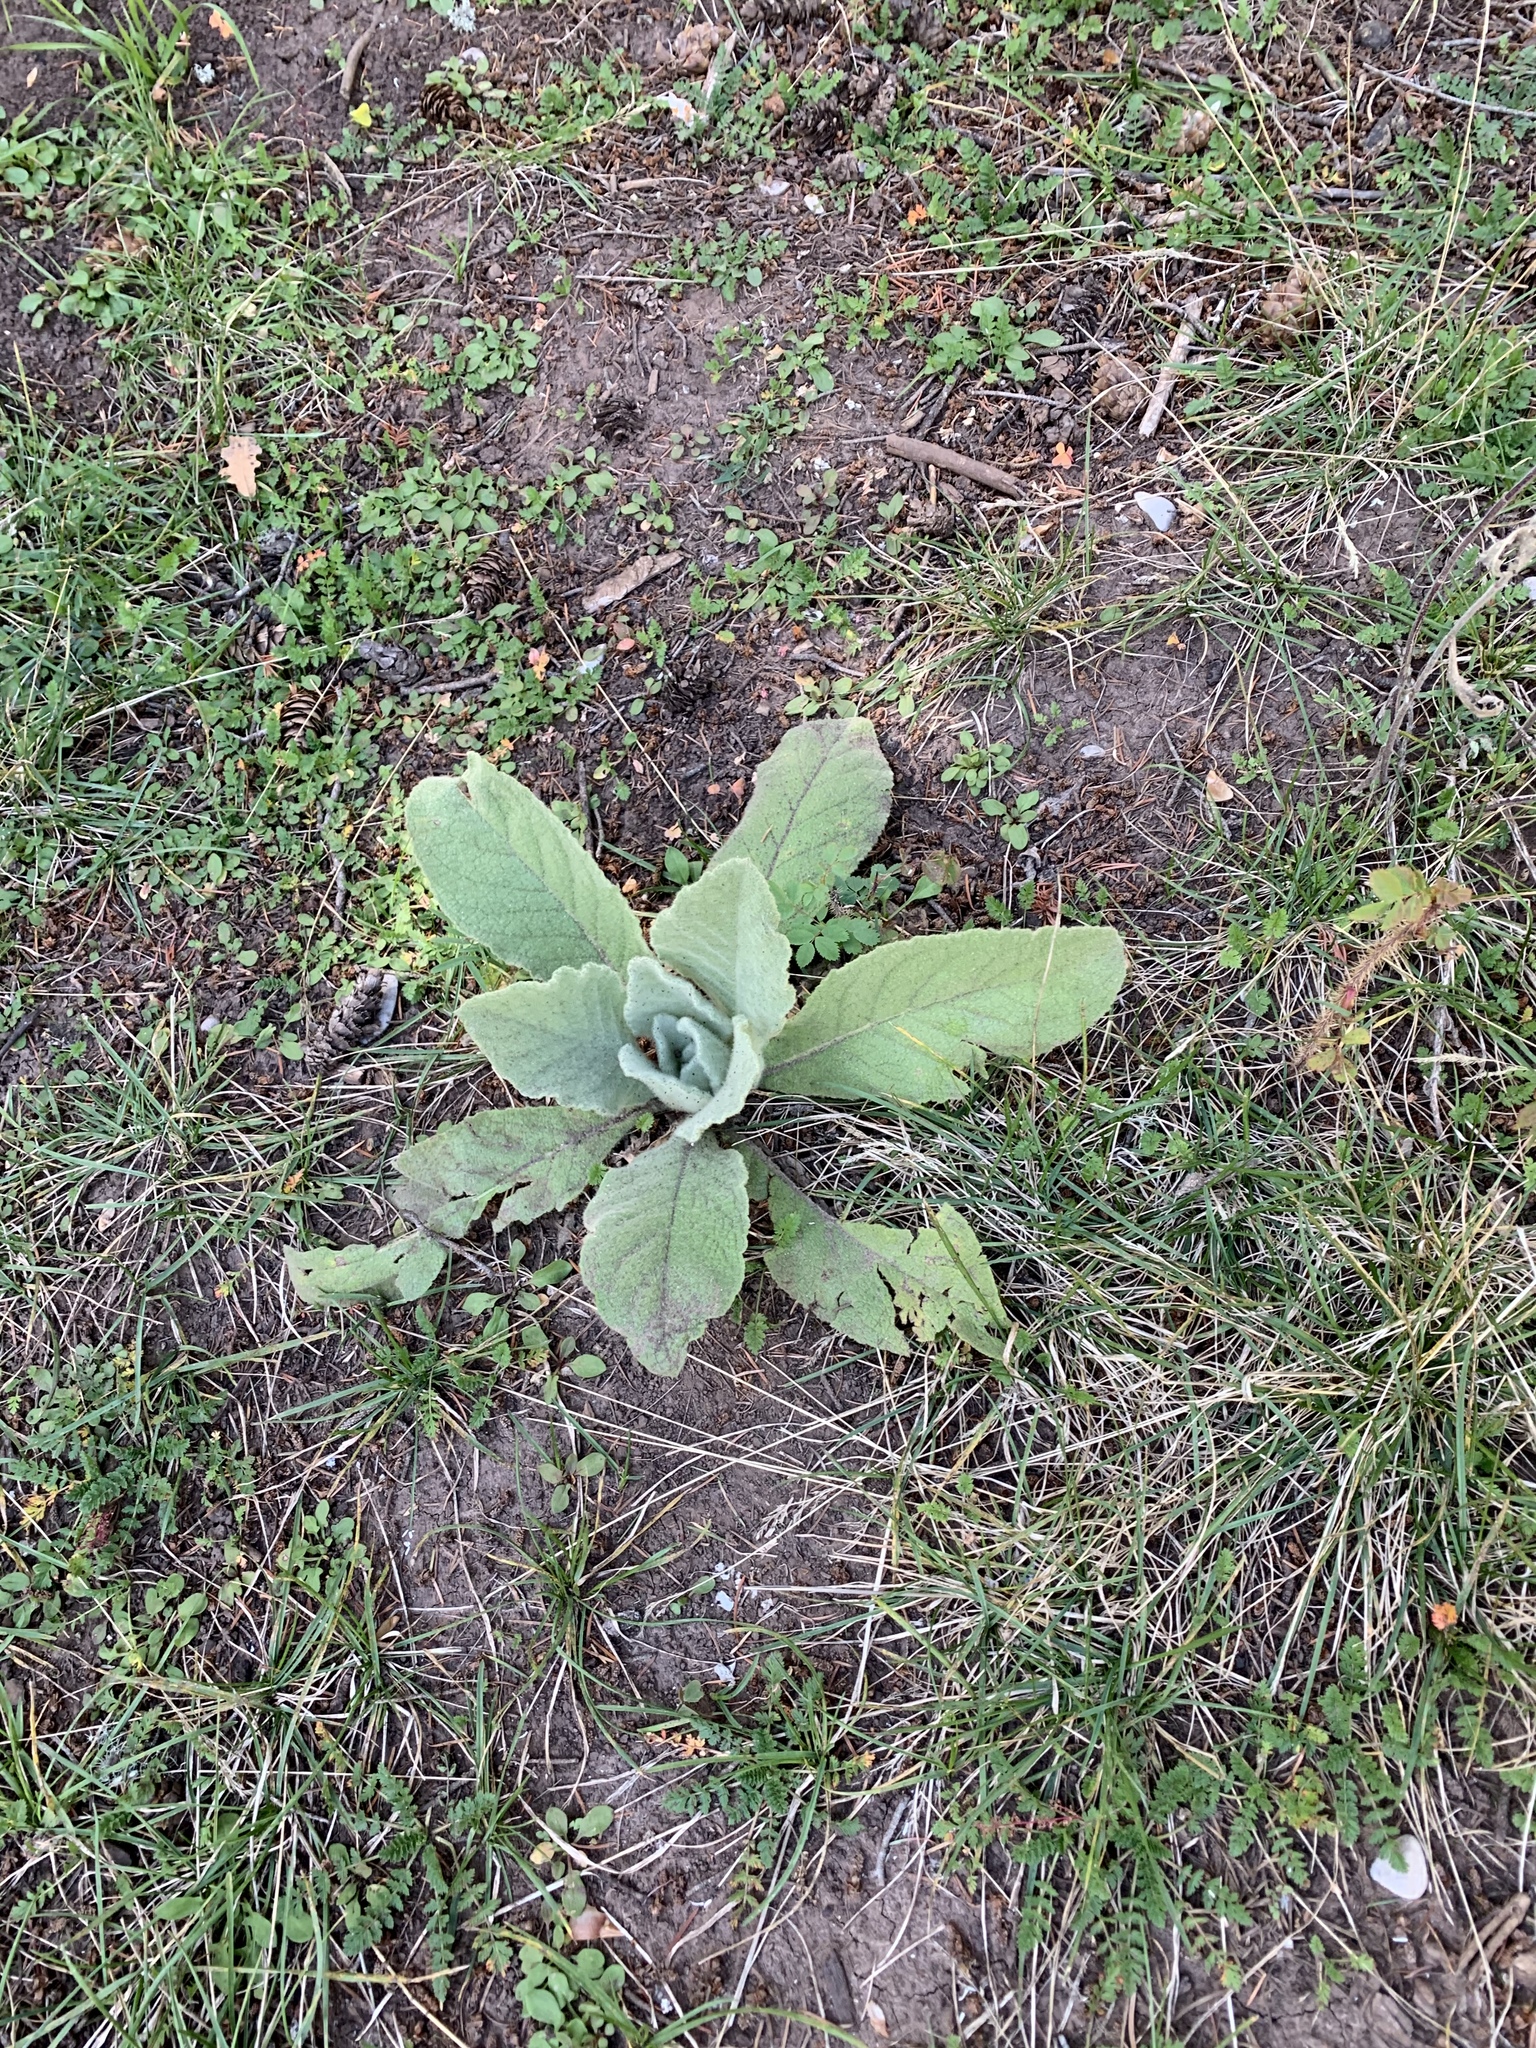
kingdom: Plantae
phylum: Tracheophyta
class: Magnoliopsida
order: Lamiales
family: Scrophulariaceae
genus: Verbascum
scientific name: Verbascum thapsus
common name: Common mullein
